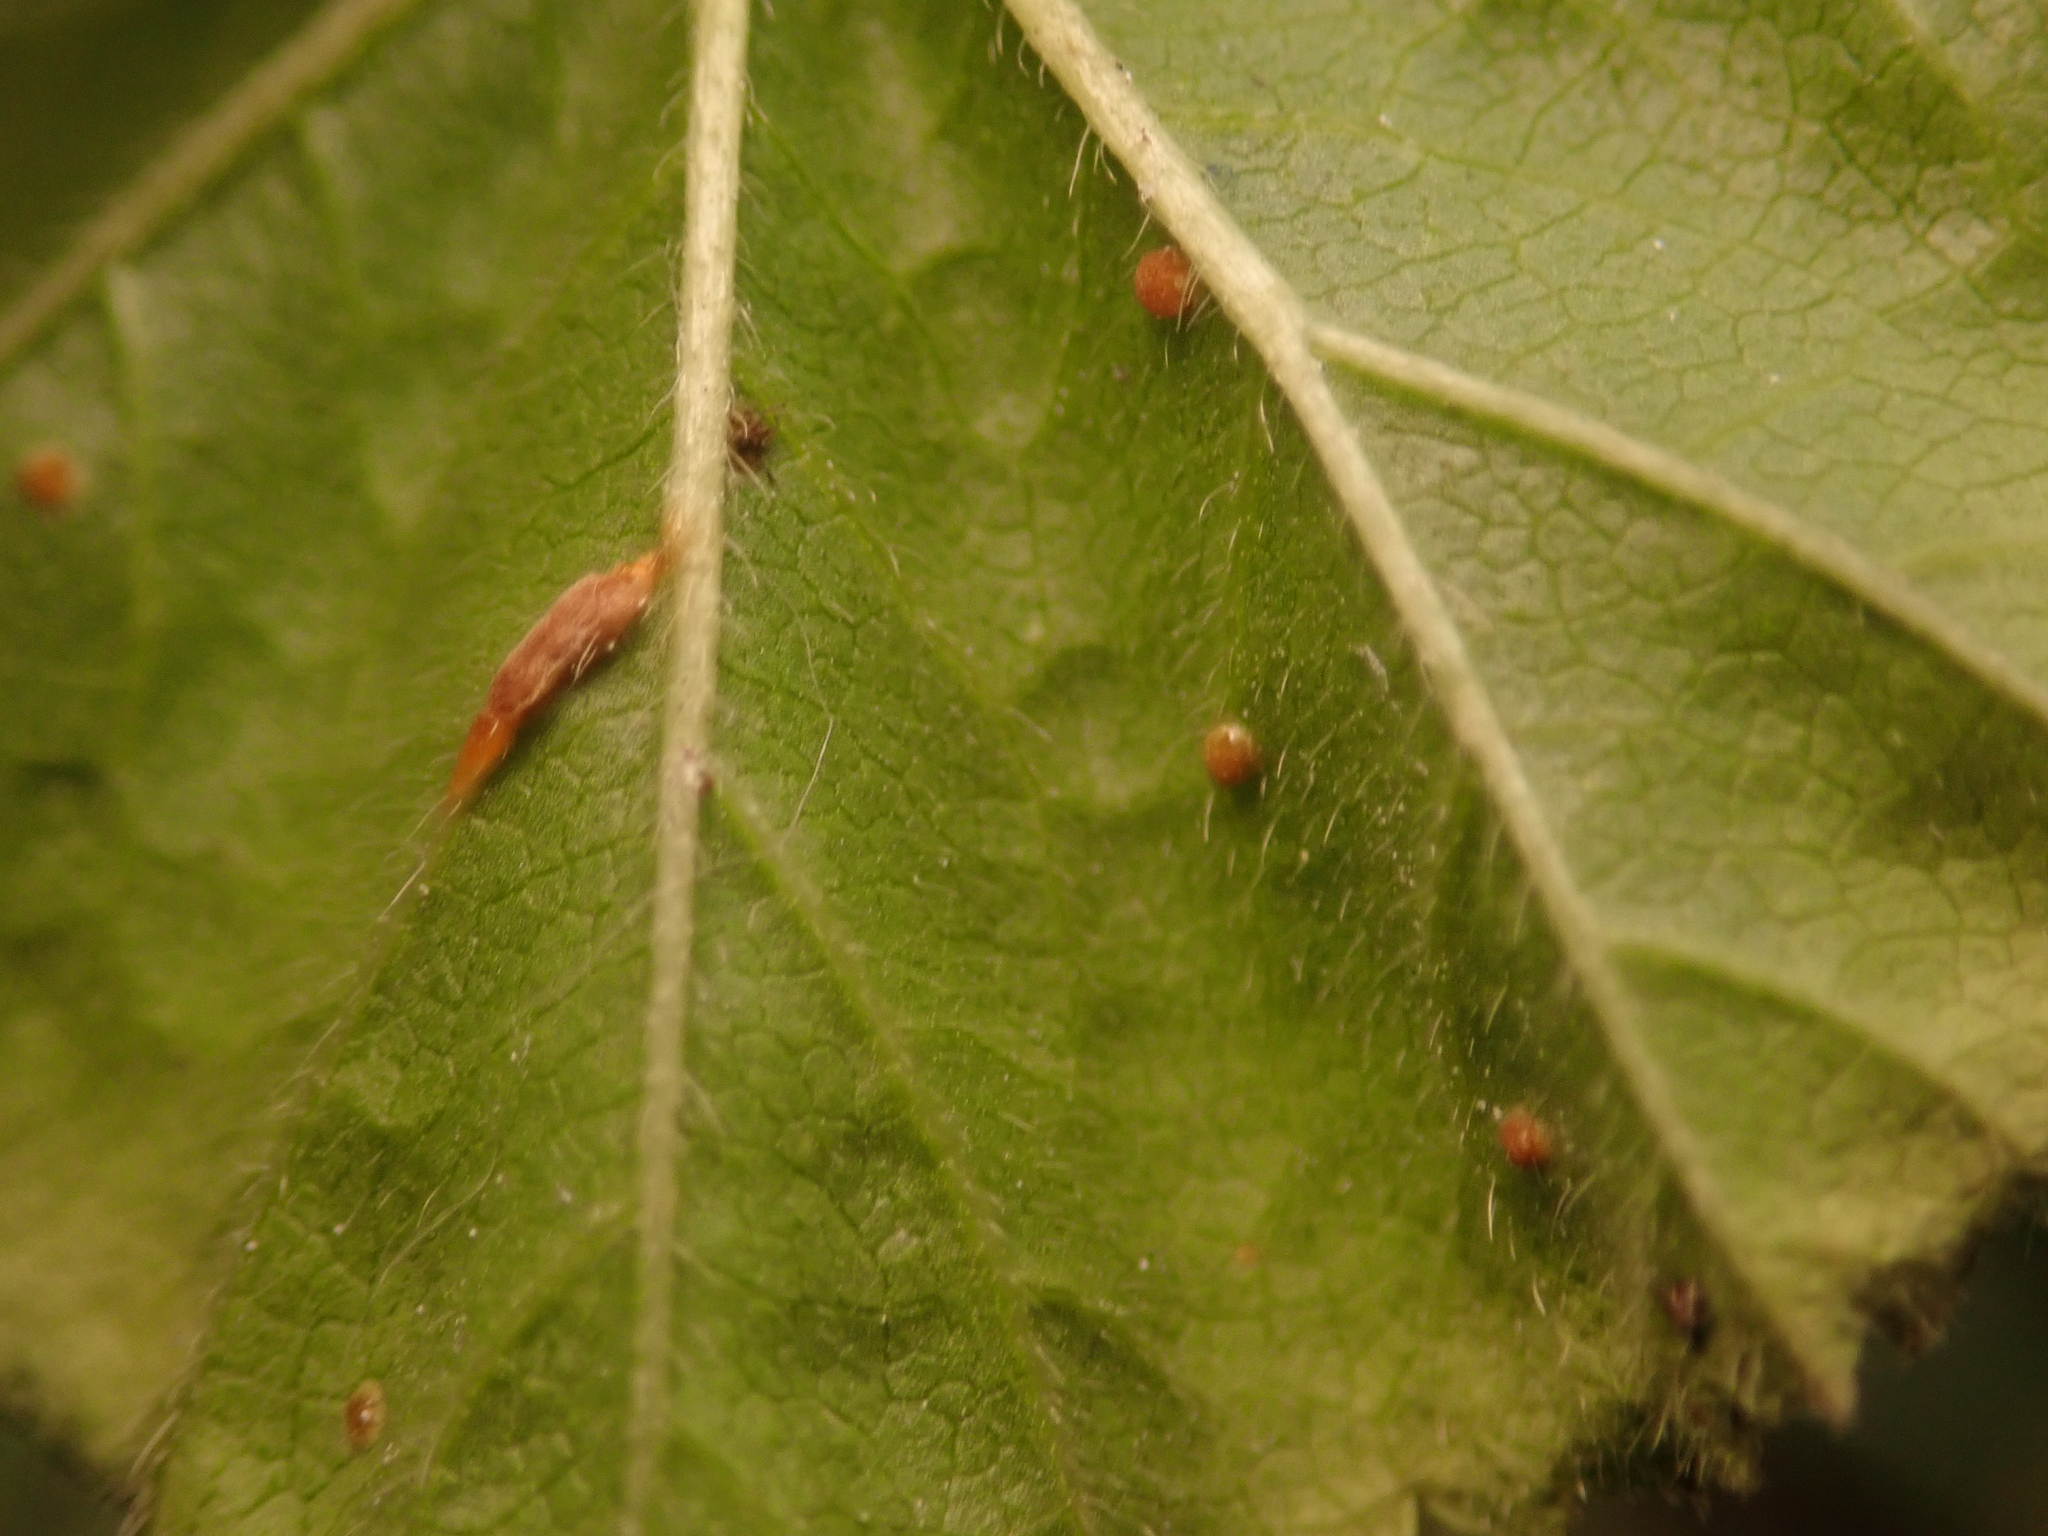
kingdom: Fungi
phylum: Basidiomycota
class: Pucciniomycetes
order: Pucciniales
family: Pucciniaceae
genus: Puccinia
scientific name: Puccinia malvacearum
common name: Hollyhock rust
